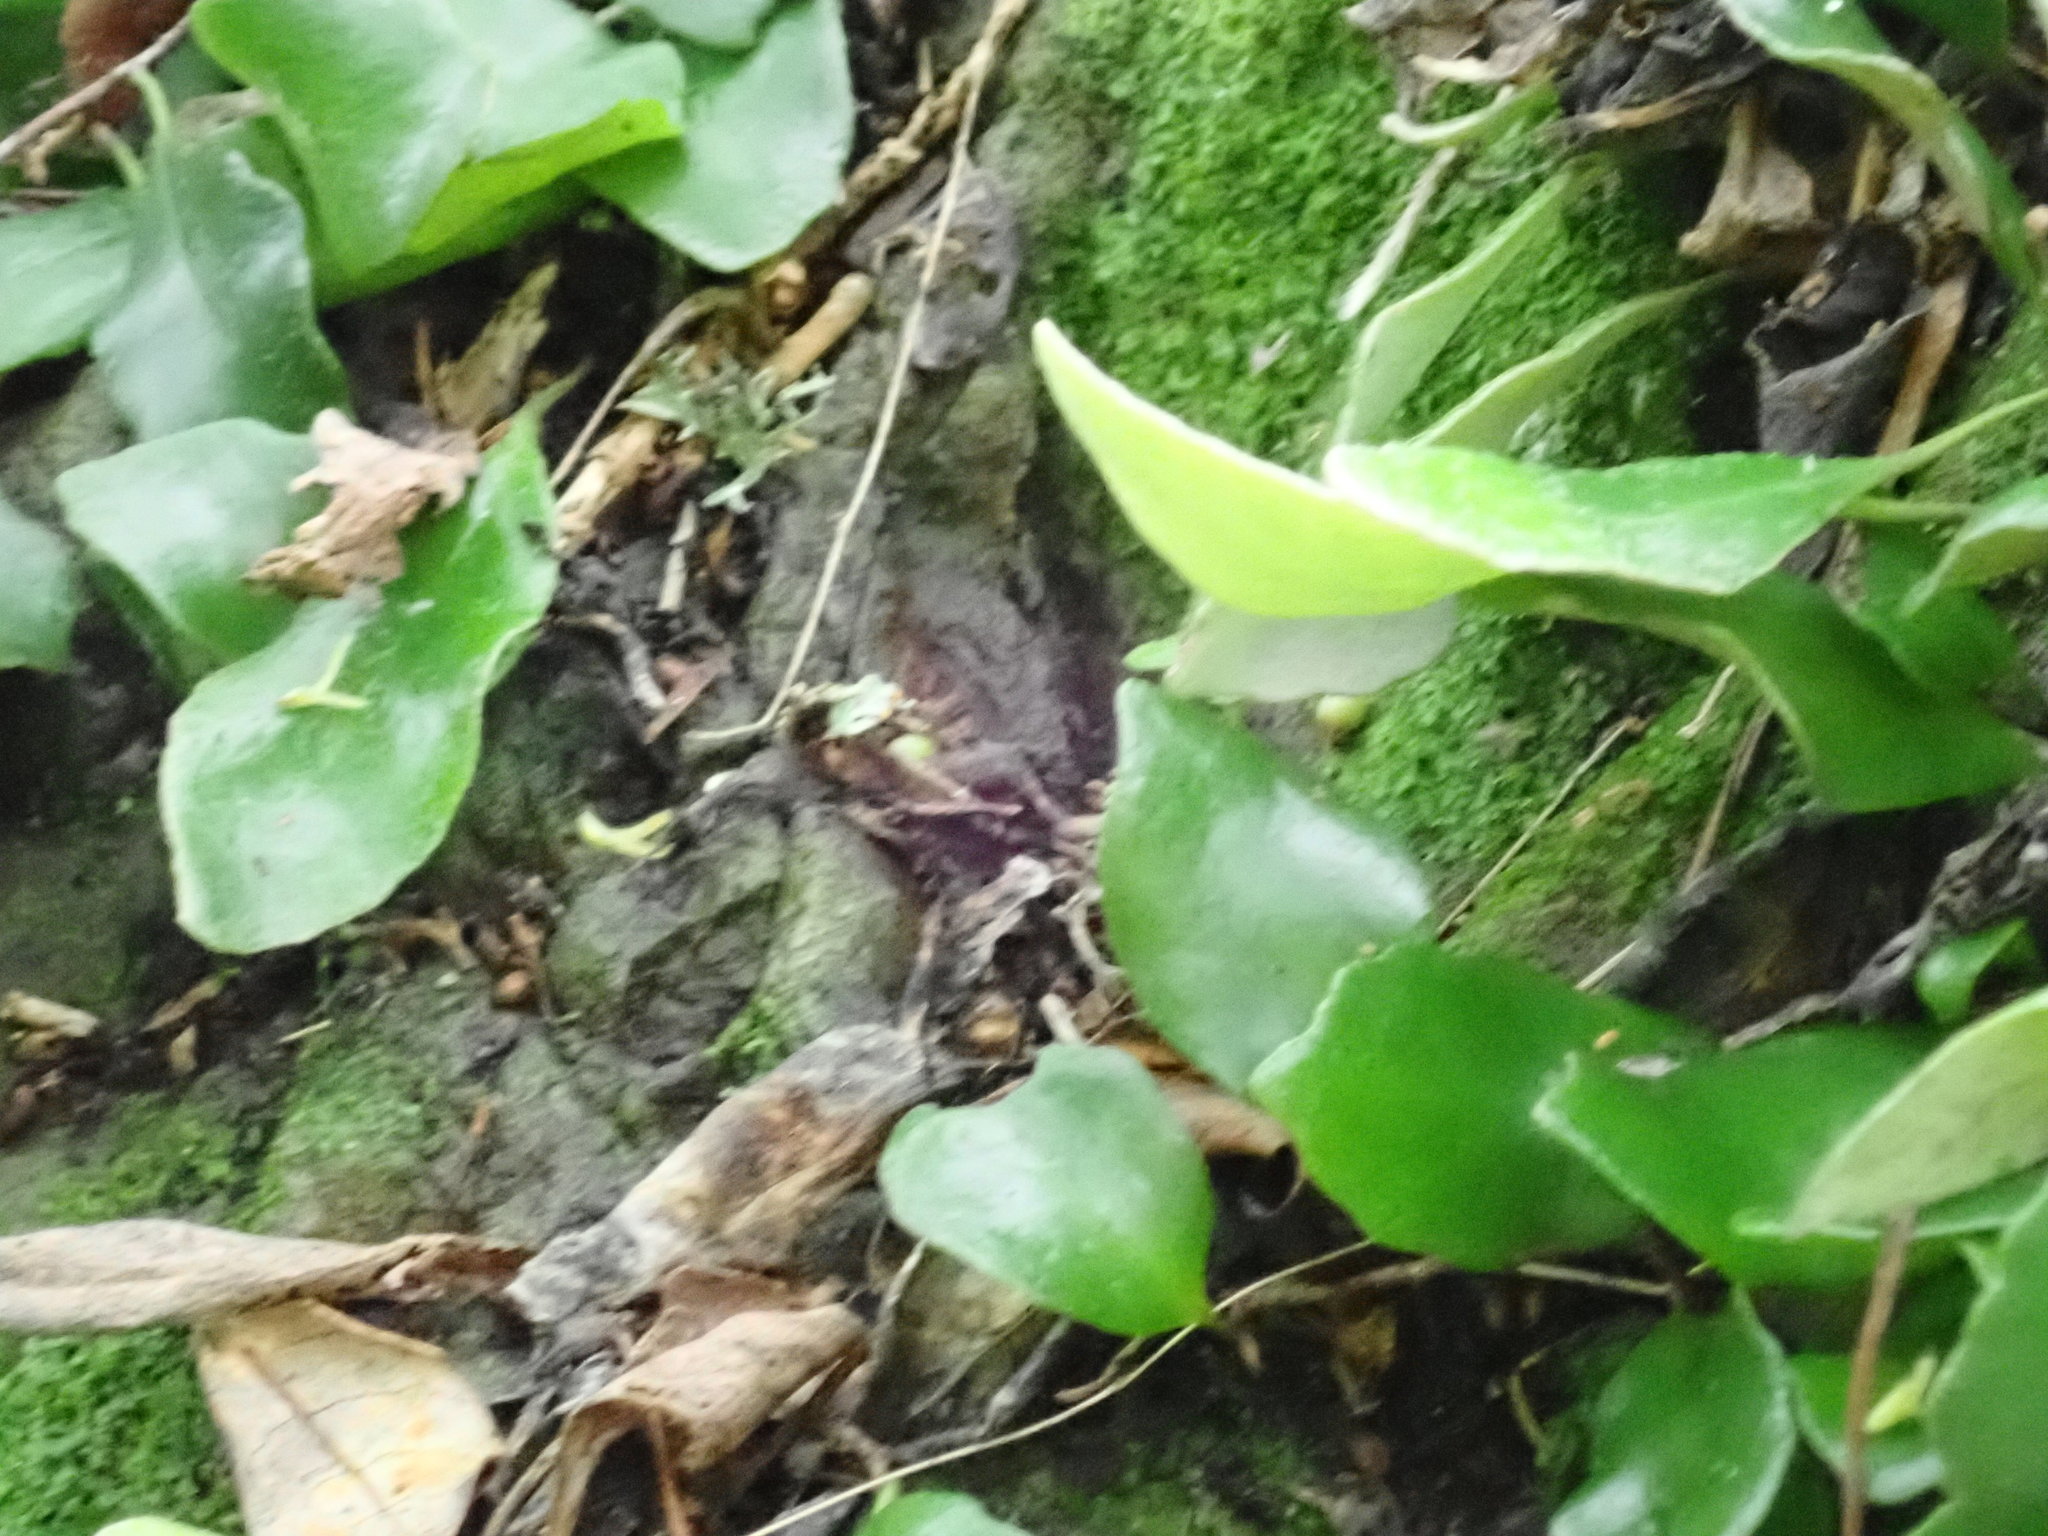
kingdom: Plantae
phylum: Tracheophyta
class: Polypodiopsida
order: Polypodiales
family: Polypodiaceae
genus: Pyrrosia
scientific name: Pyrrosia eleagnifolia
